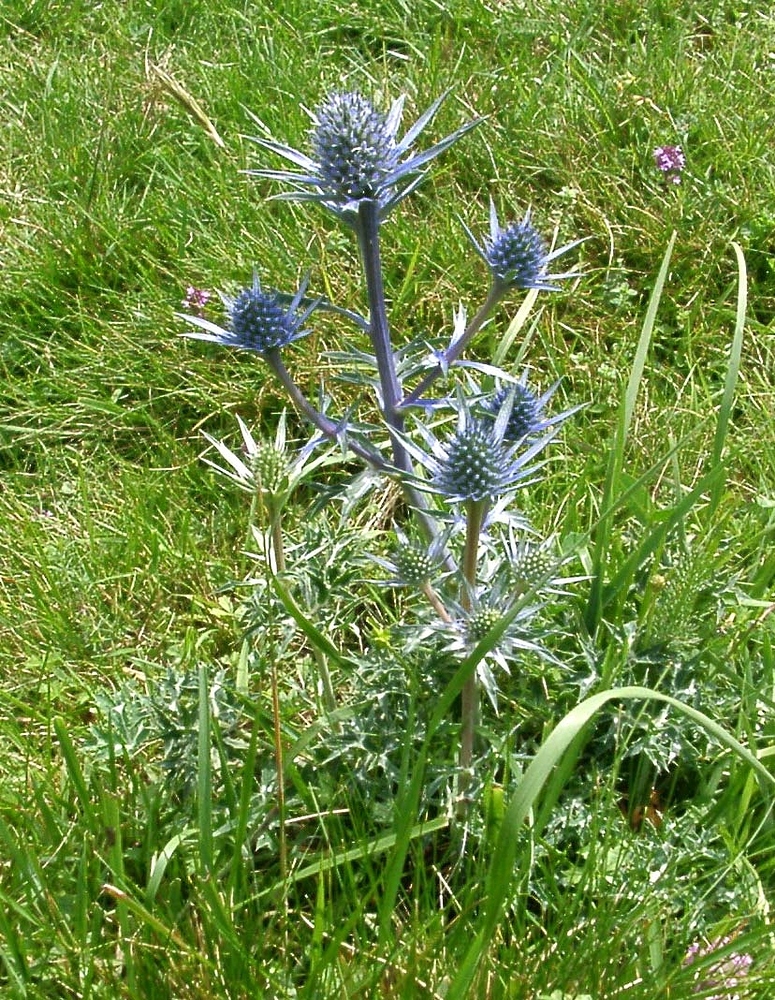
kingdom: Plantae
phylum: Tracheophyta
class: Magnoliopsida
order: Apiales
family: Apiaceae
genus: Eryngium
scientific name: Eryngium bourgatii
